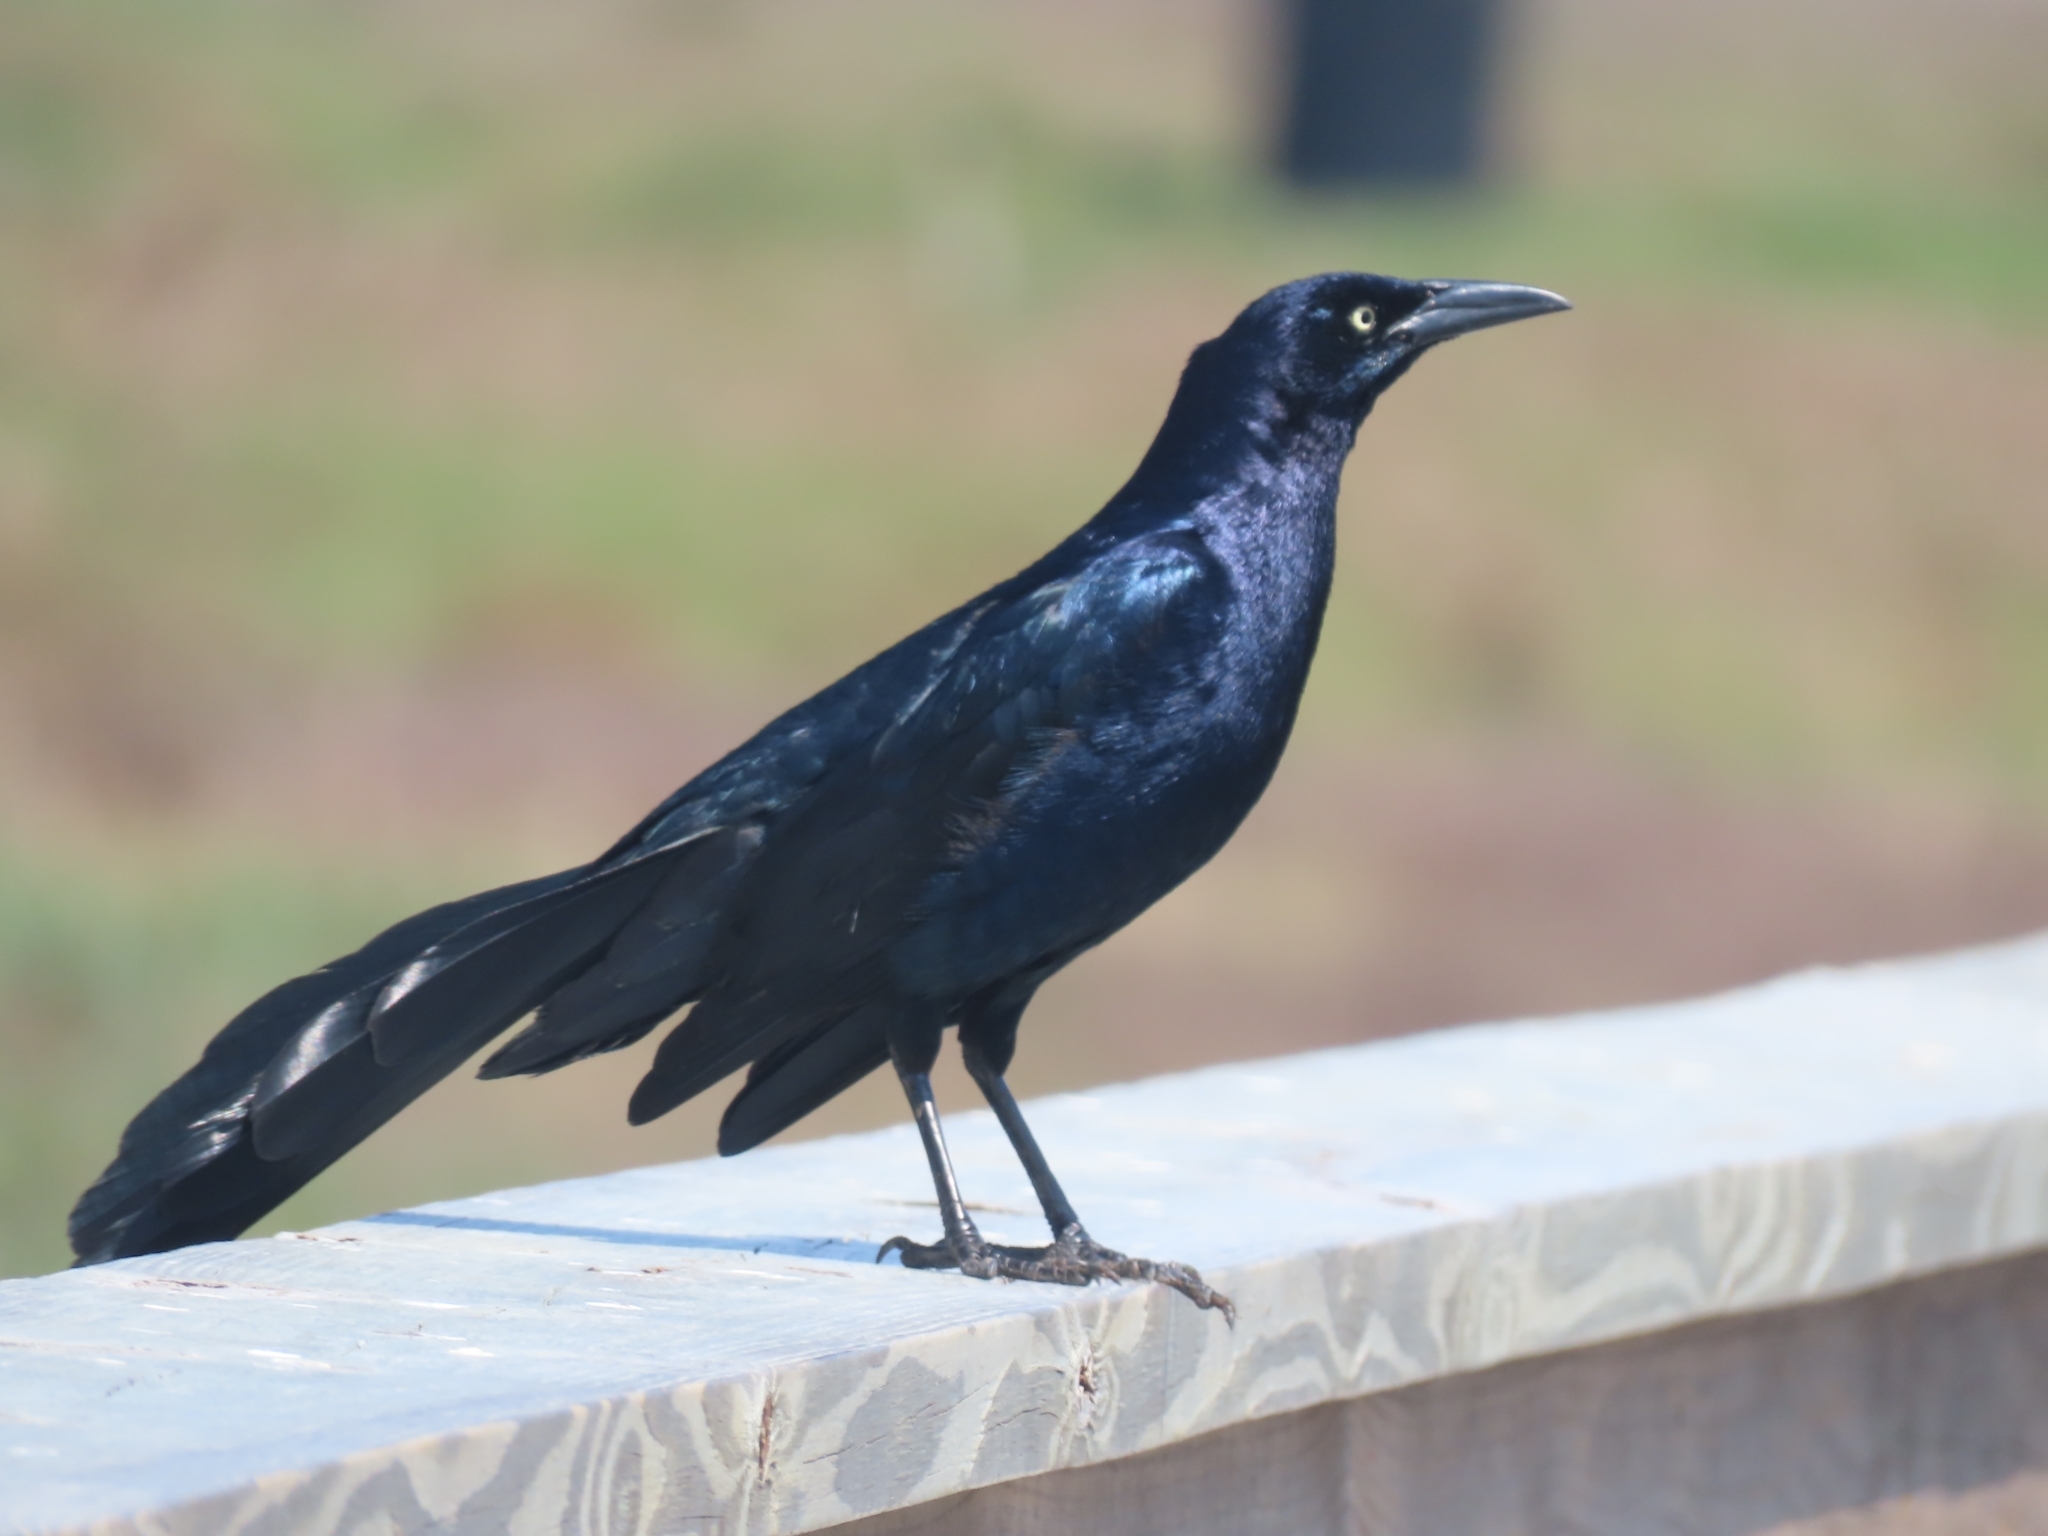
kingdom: Animalia
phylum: Chordata
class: Aves
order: Passeriformes
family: Icteridae
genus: Quiscalus
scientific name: Quiscalus mexicanus
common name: Great-tailed grackle
